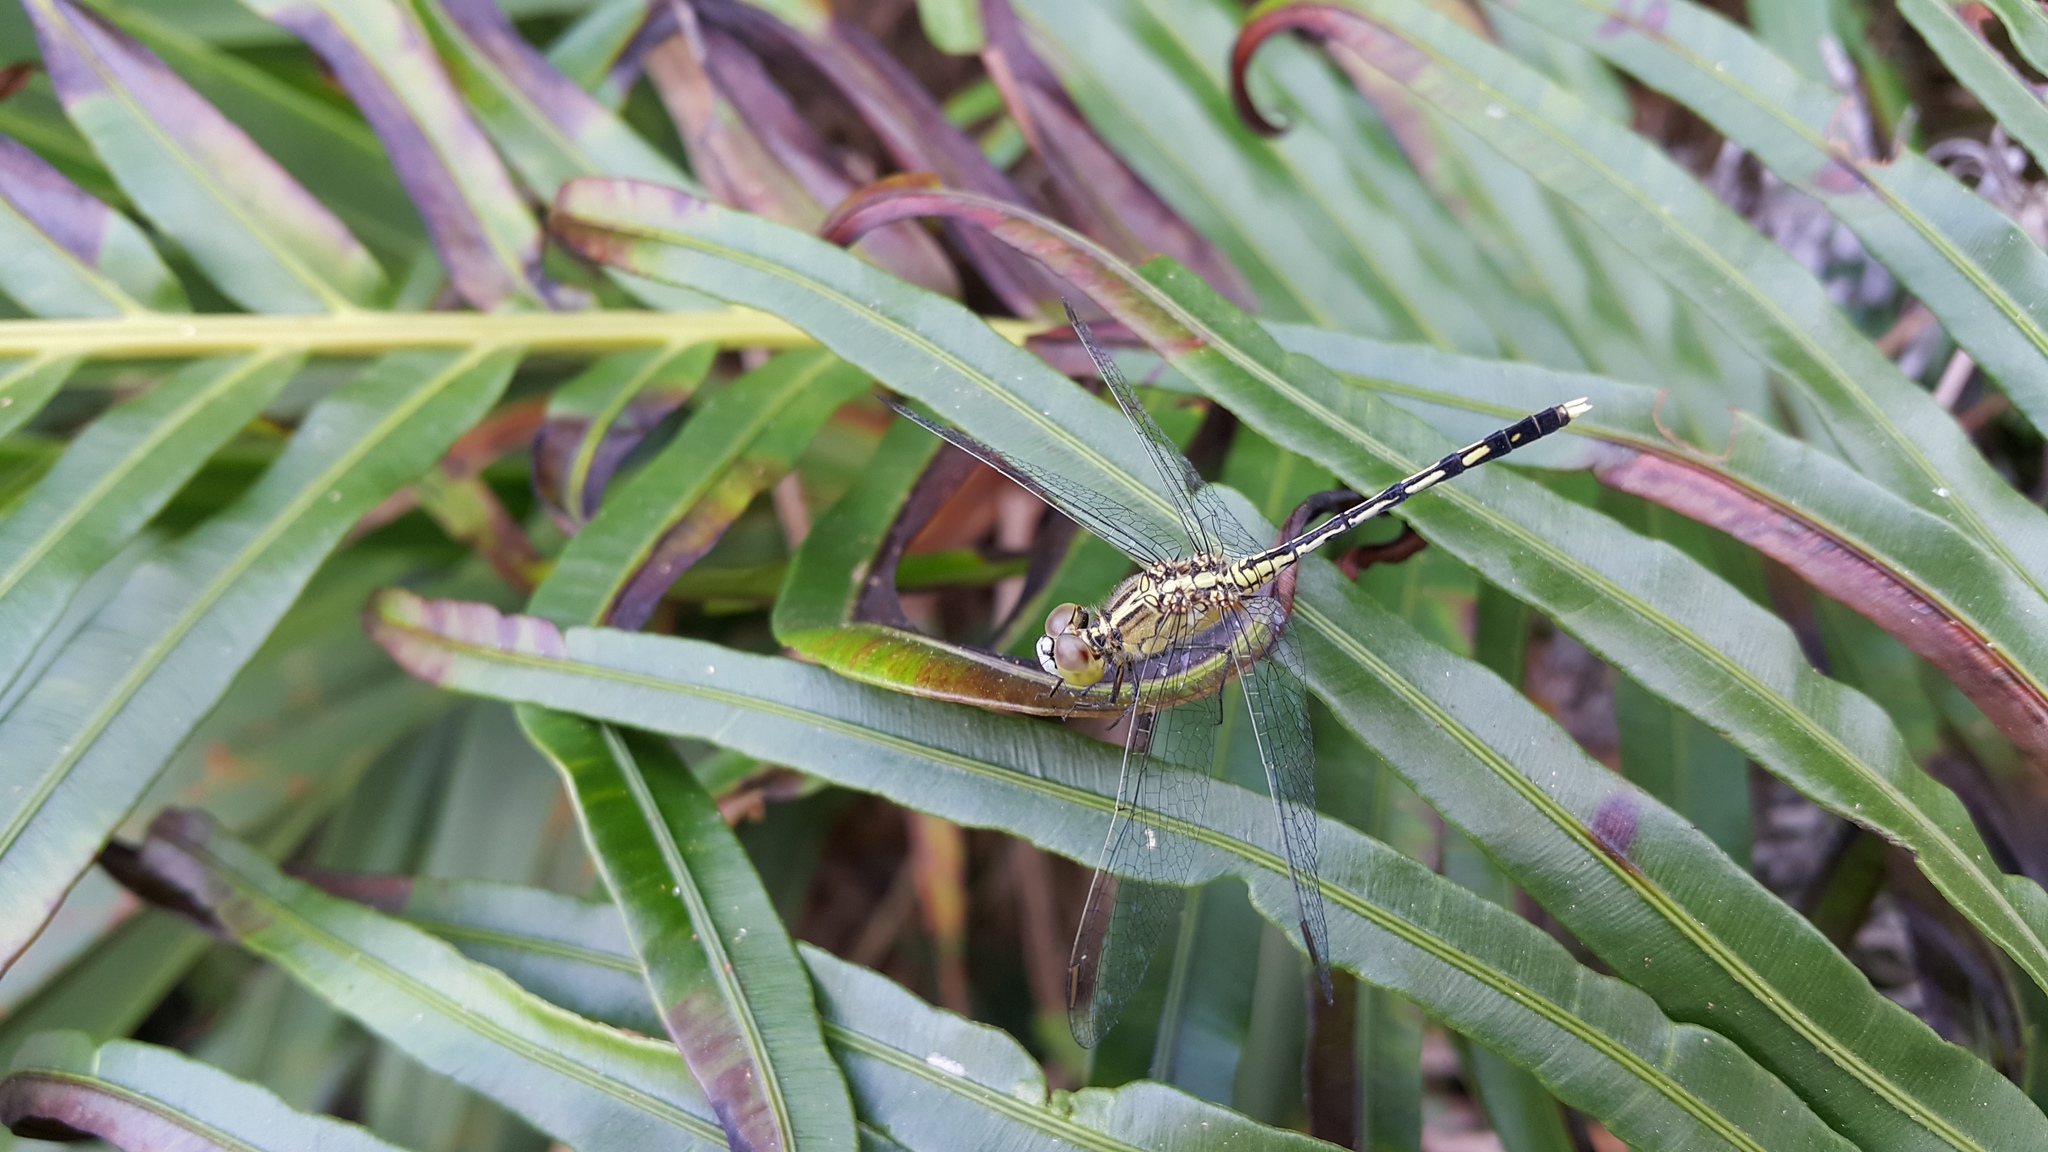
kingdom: Animalia
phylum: Arthropoda
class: Insecta
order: Odonata
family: Libellulidae
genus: Diplacodes
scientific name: Diplacodes trivialis
